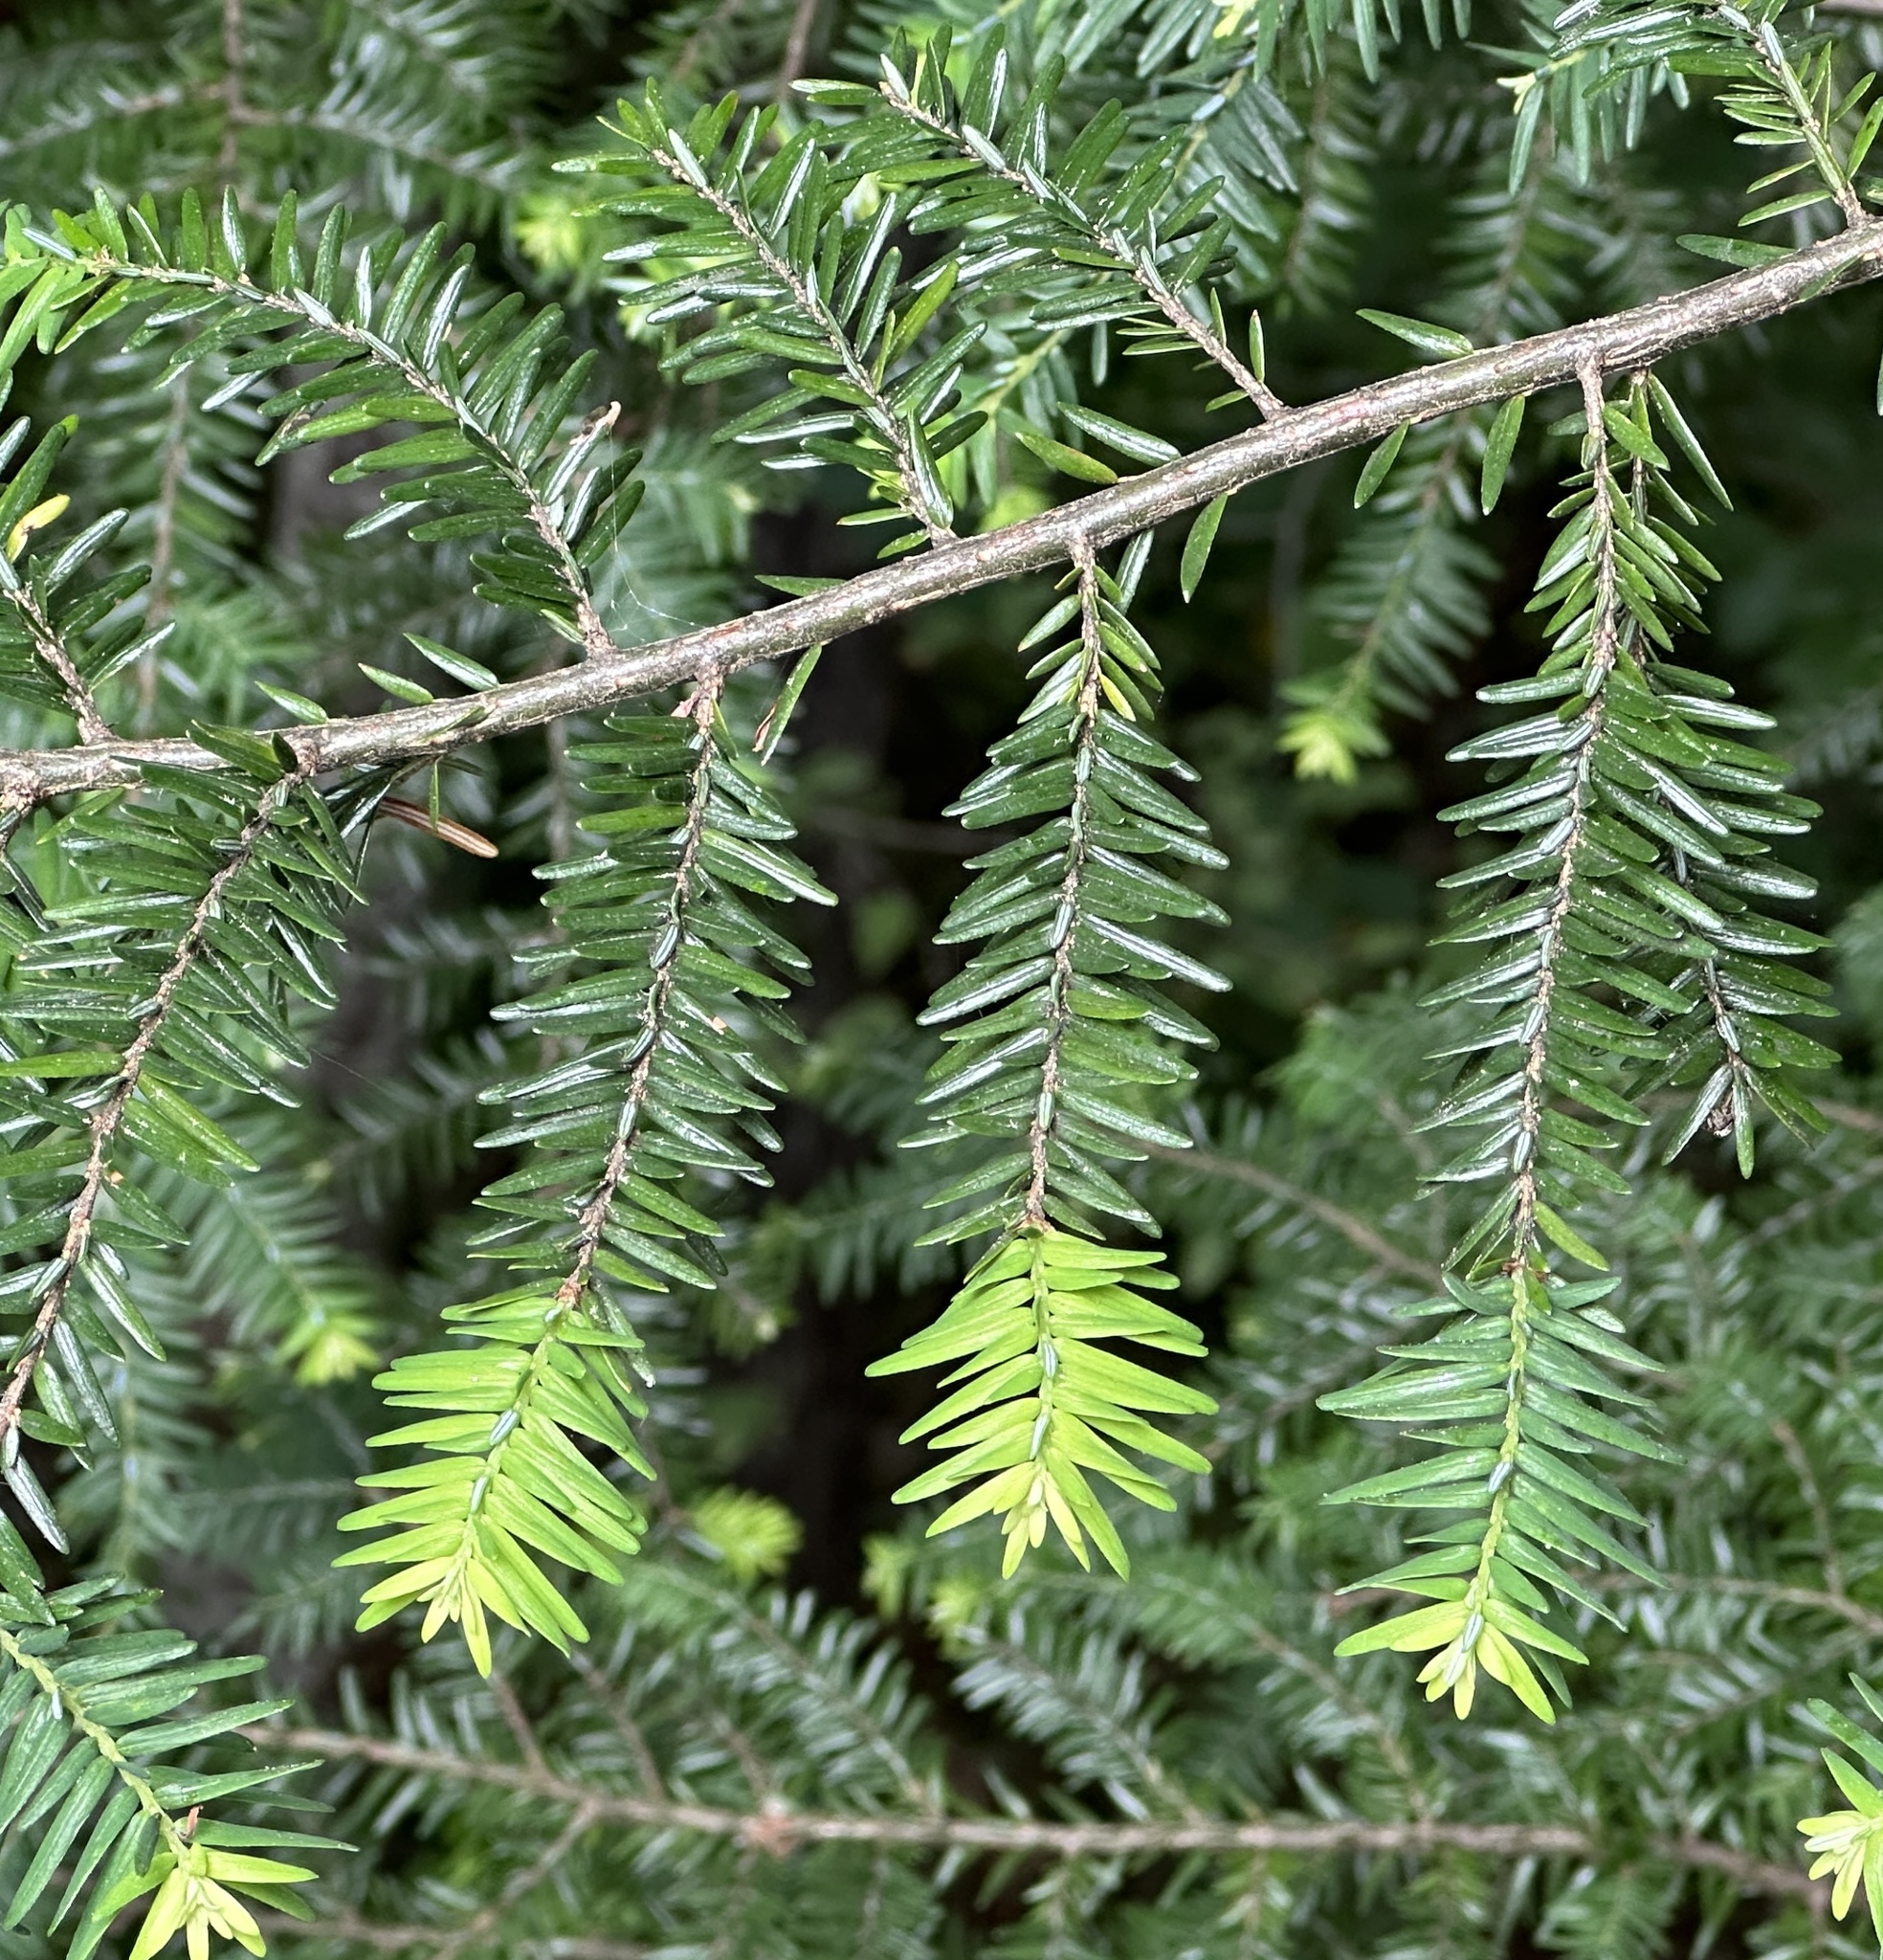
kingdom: Plantae
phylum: Tracheophyta
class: Pinopsida
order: Pinales
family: Pinaceae
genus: Tsuga
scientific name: Tsuga canadensis
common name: Eastern hemlock
